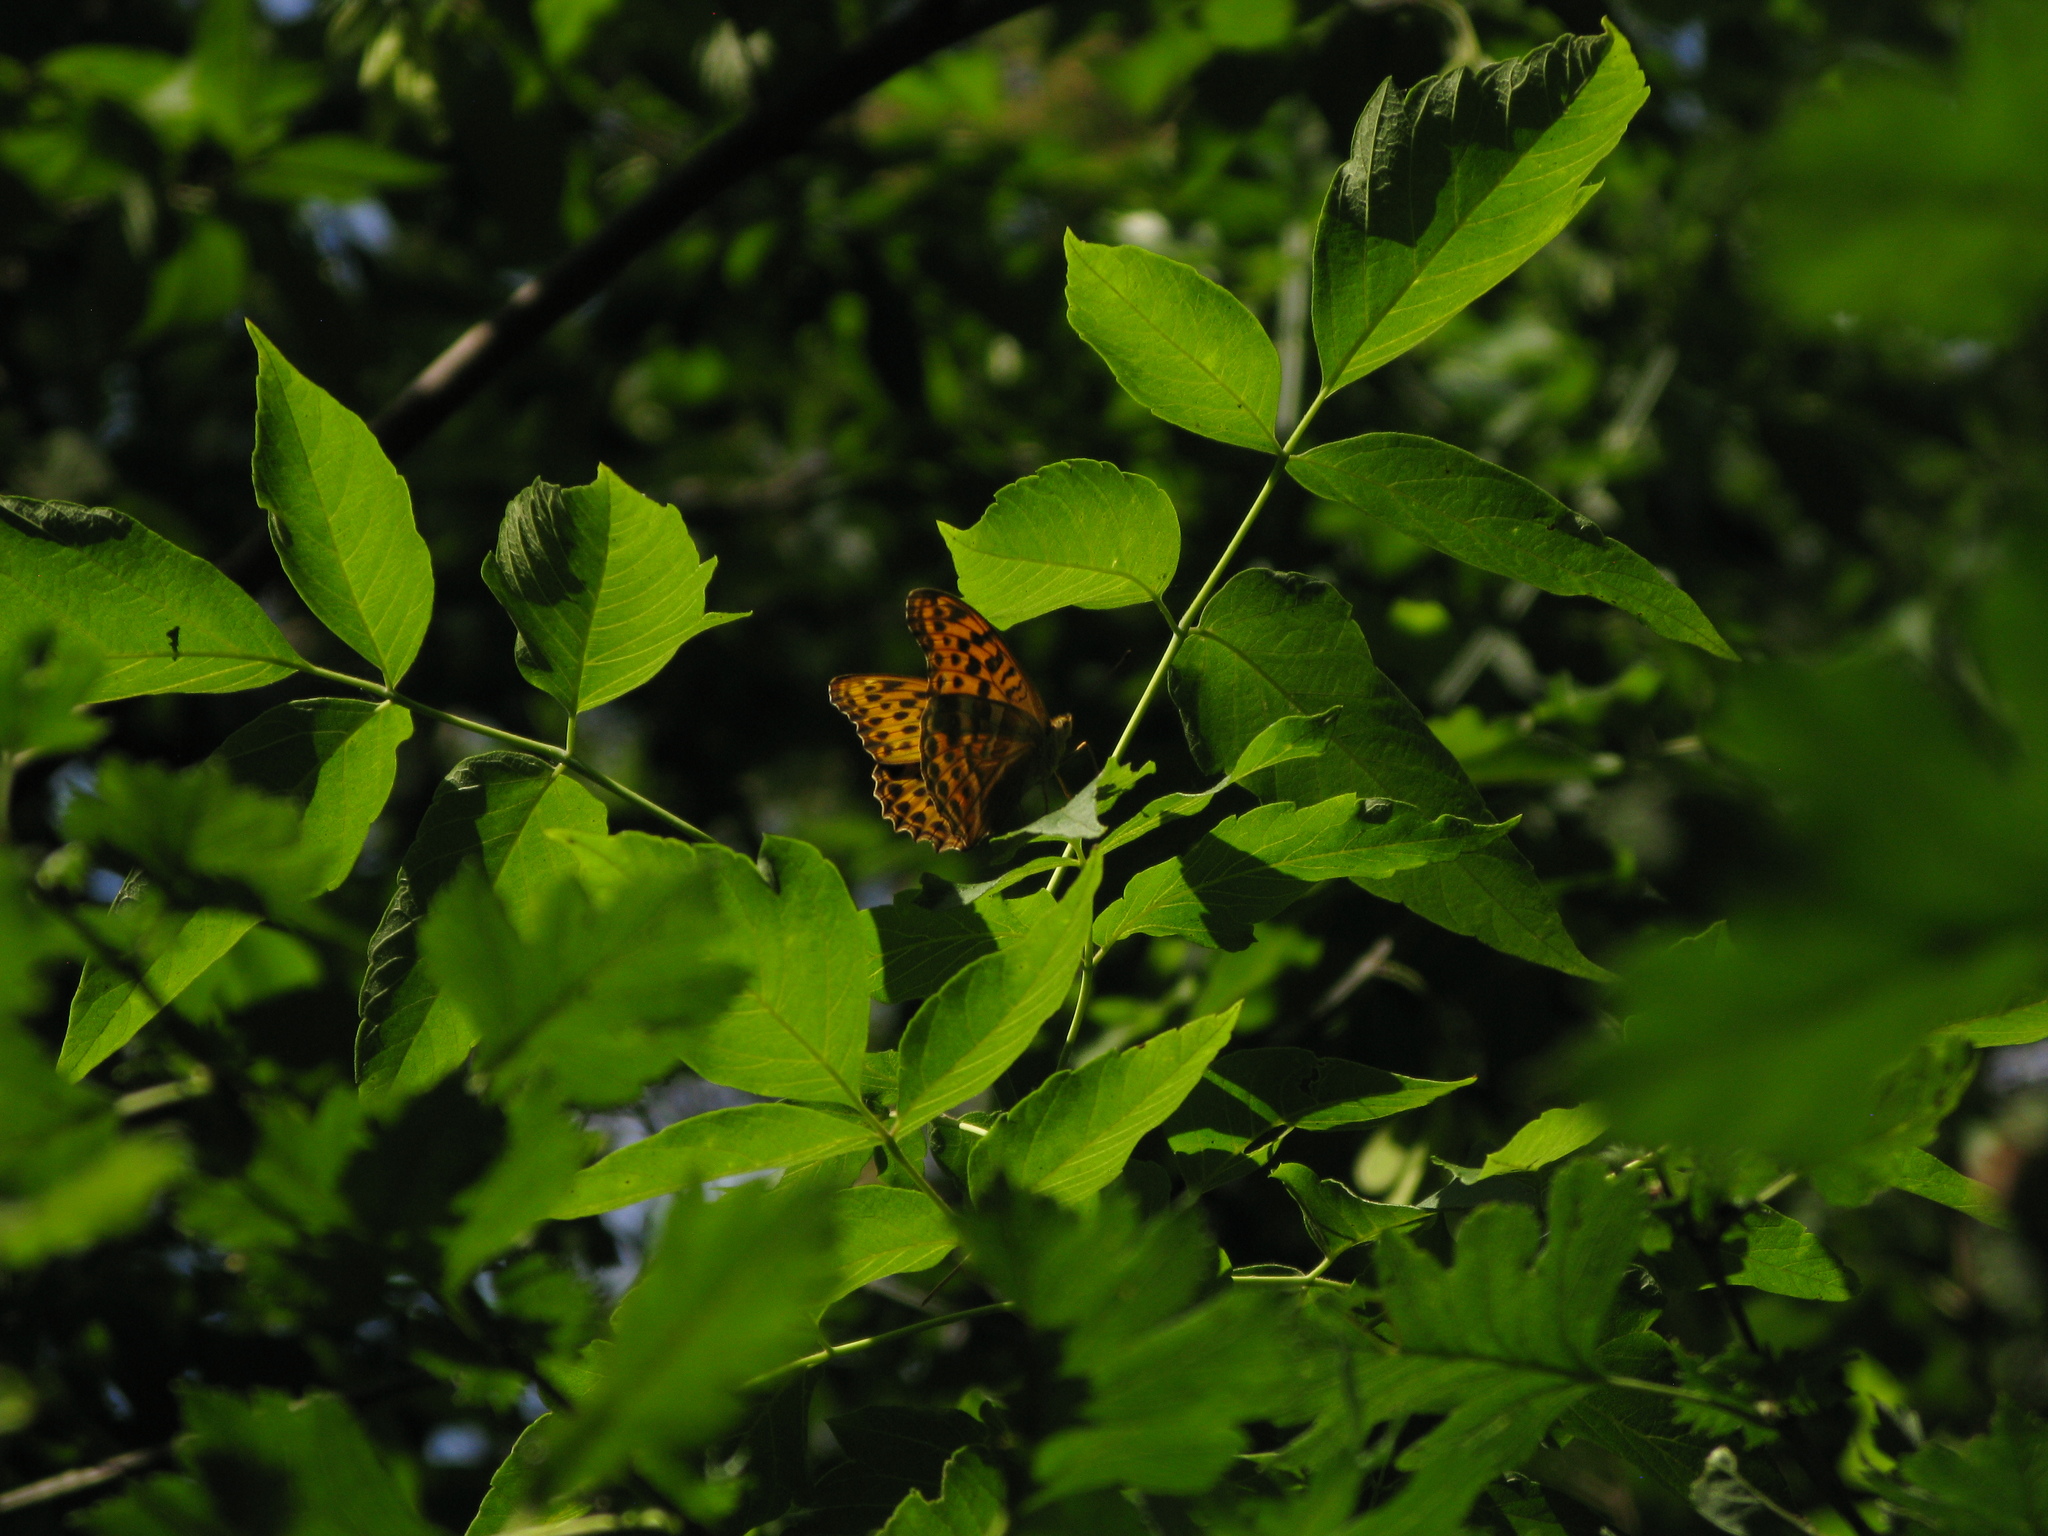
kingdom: Animalia
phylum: Arthropoda
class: Insecta
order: Lepidoptera
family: Nymphalidae
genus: Argynnis
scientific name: Argynnis paphia
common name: Silver-washed fritillary
